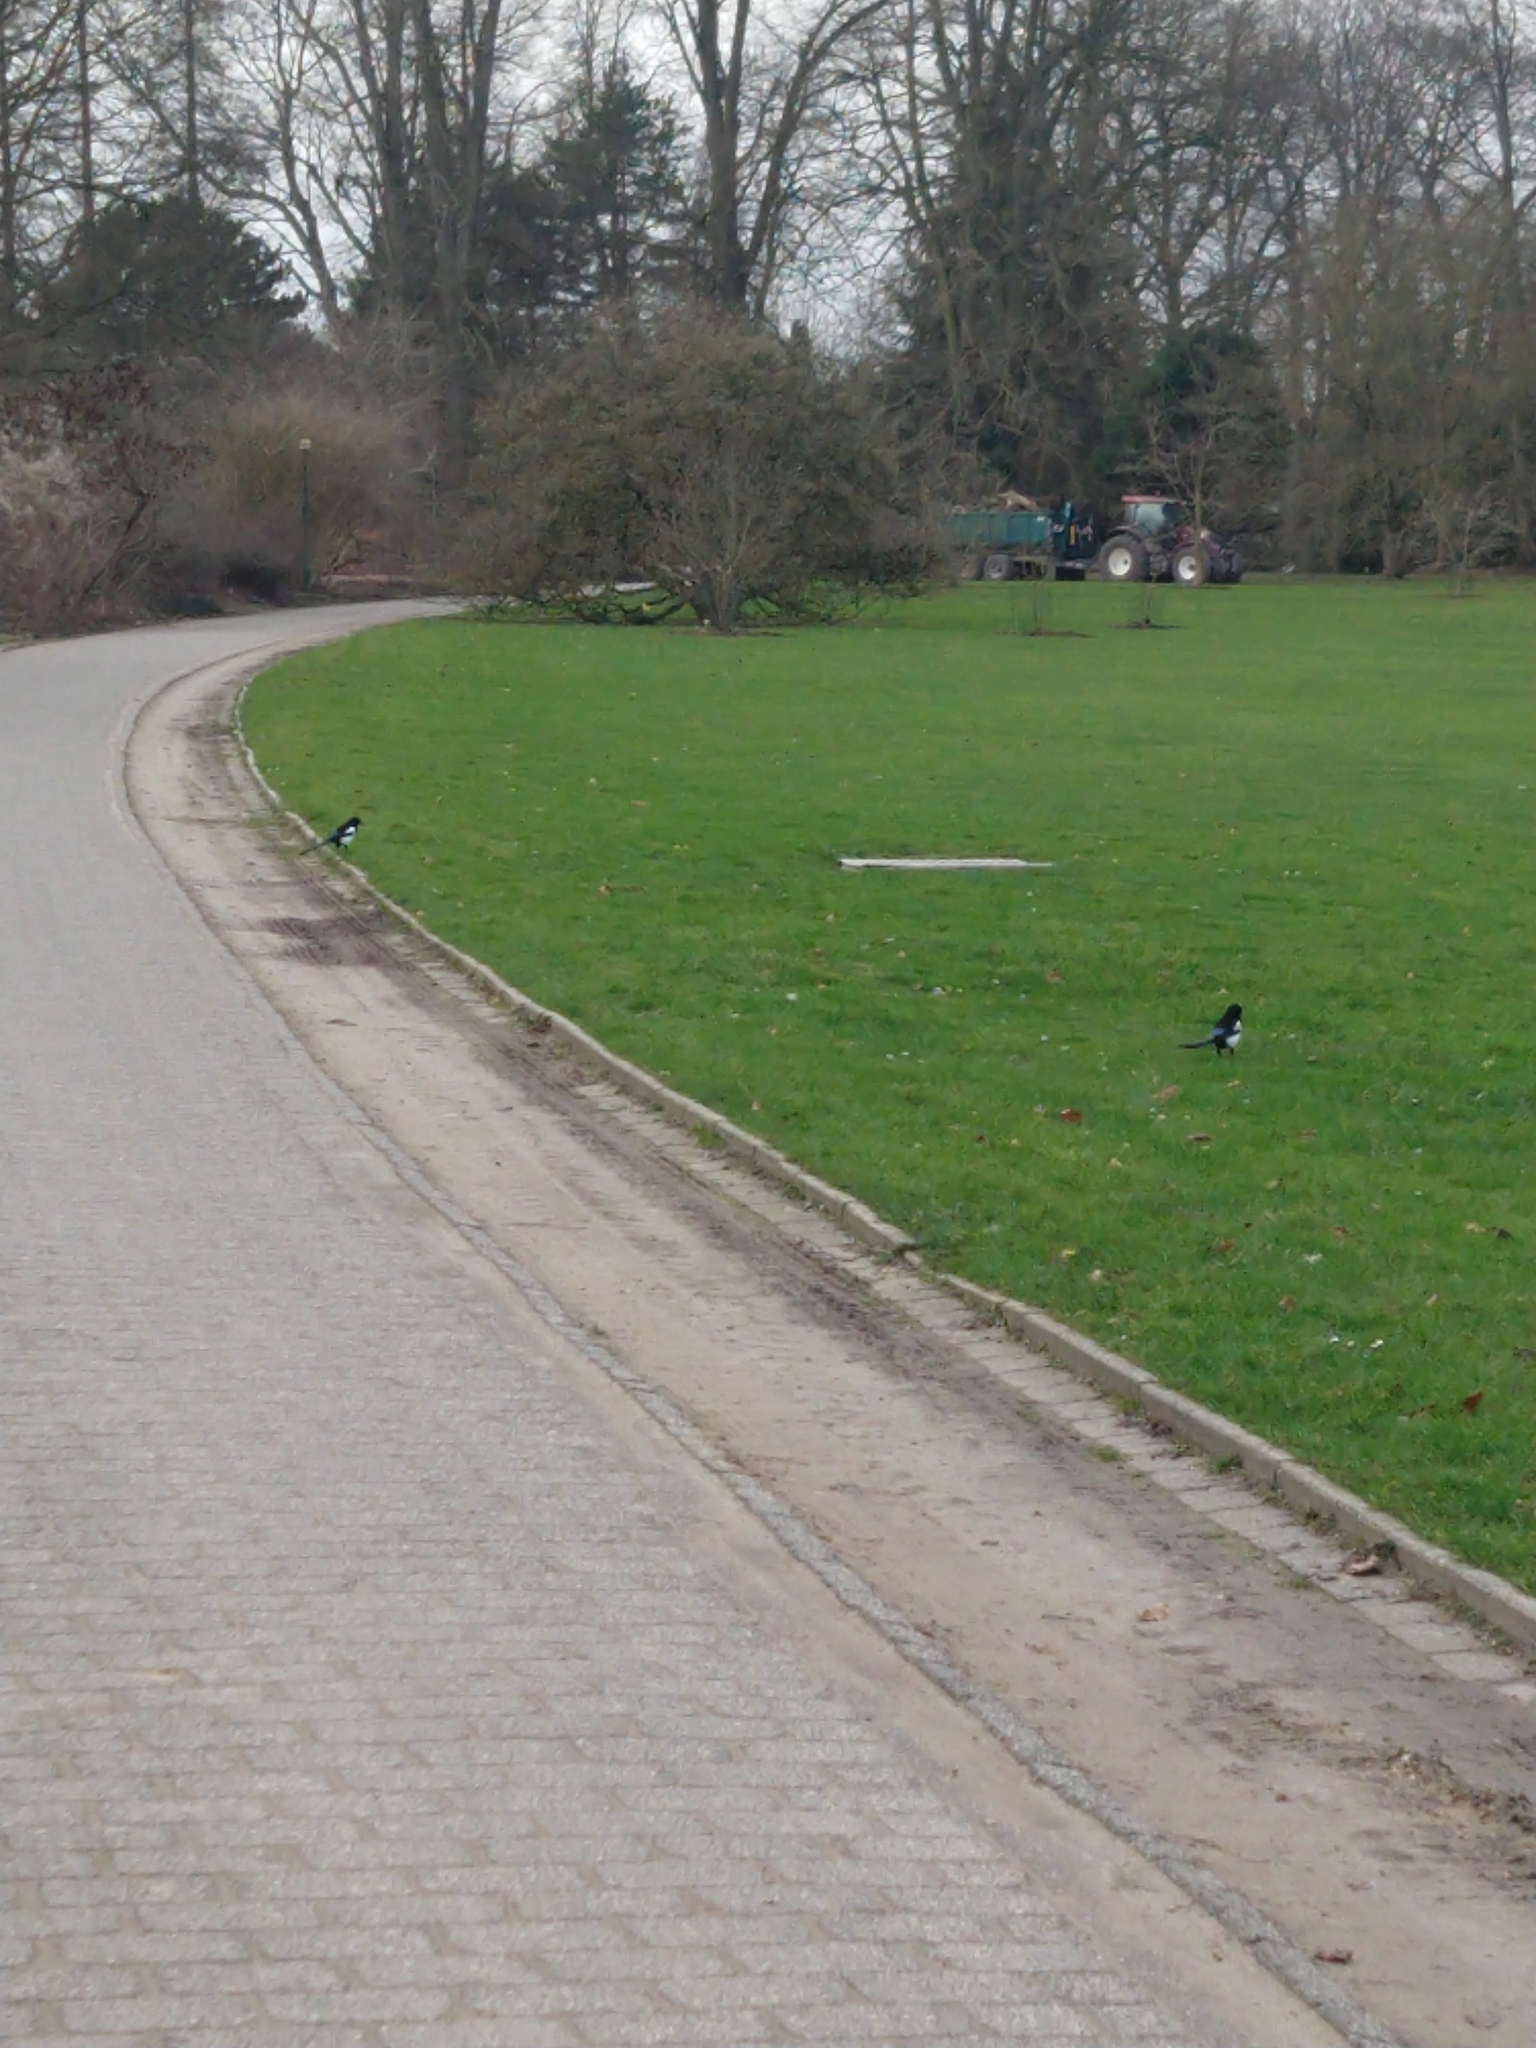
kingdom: Animalia
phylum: Chordata
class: Aves
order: Passeriformes
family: Corvidae
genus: Pica
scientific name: Pica pica
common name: Eurasian magpie
